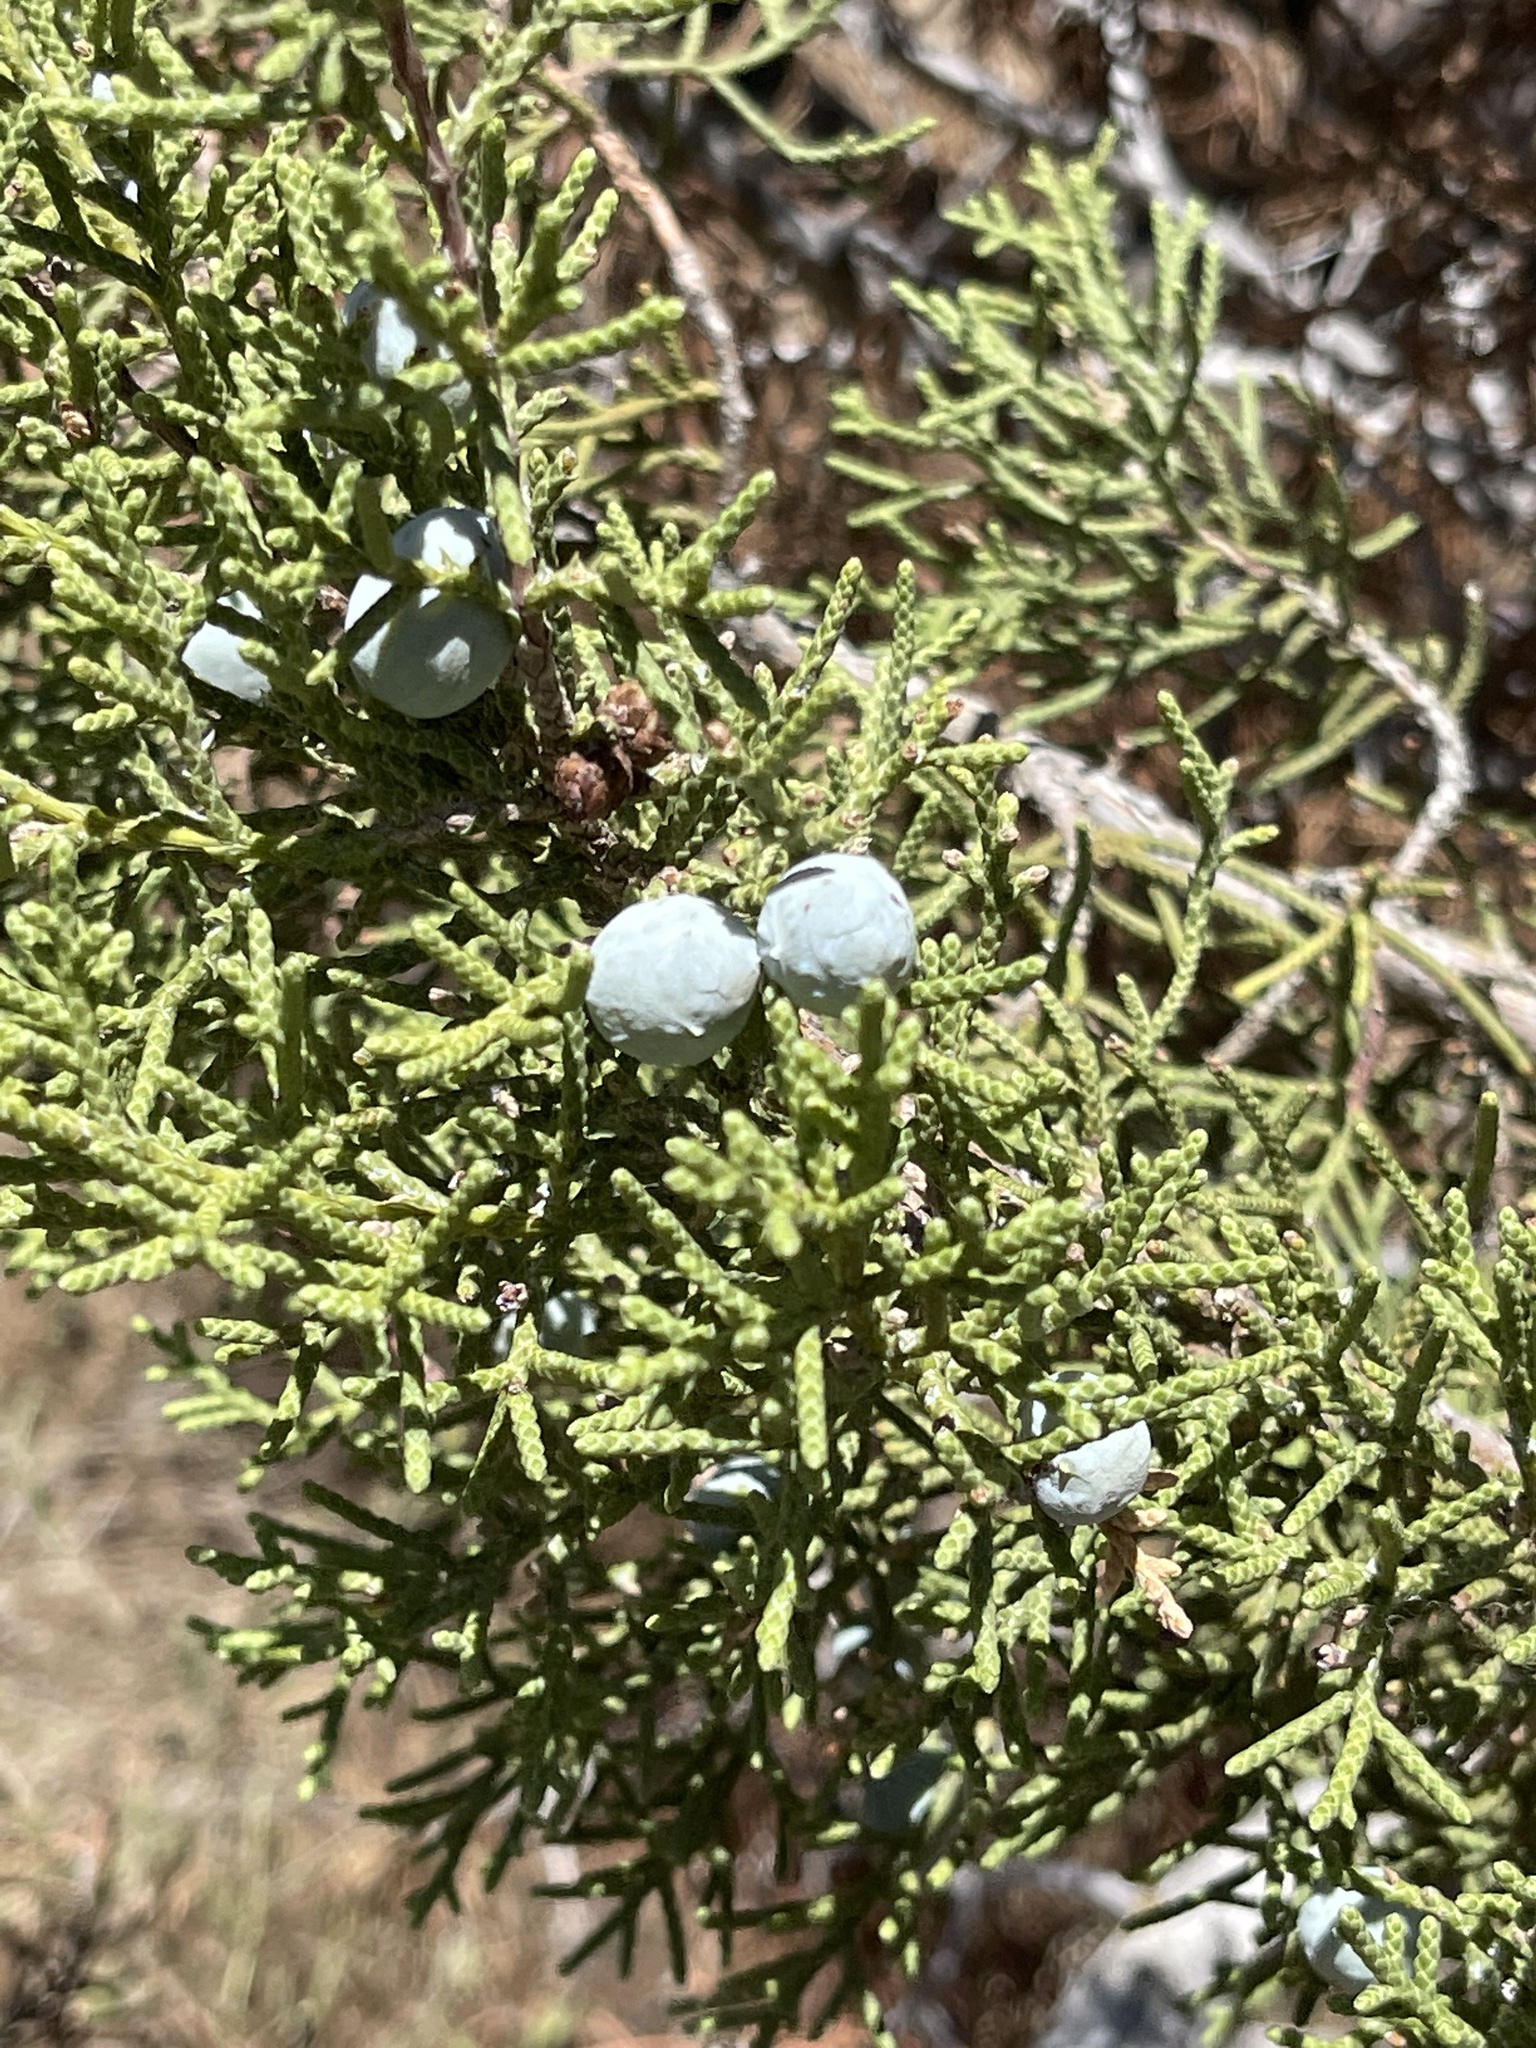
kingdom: Plantae
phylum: Tracheophyta
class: Pinopsida
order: Pinales
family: Cupressaceae
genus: Juniperus
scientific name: Juniperus californica
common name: California juniper
